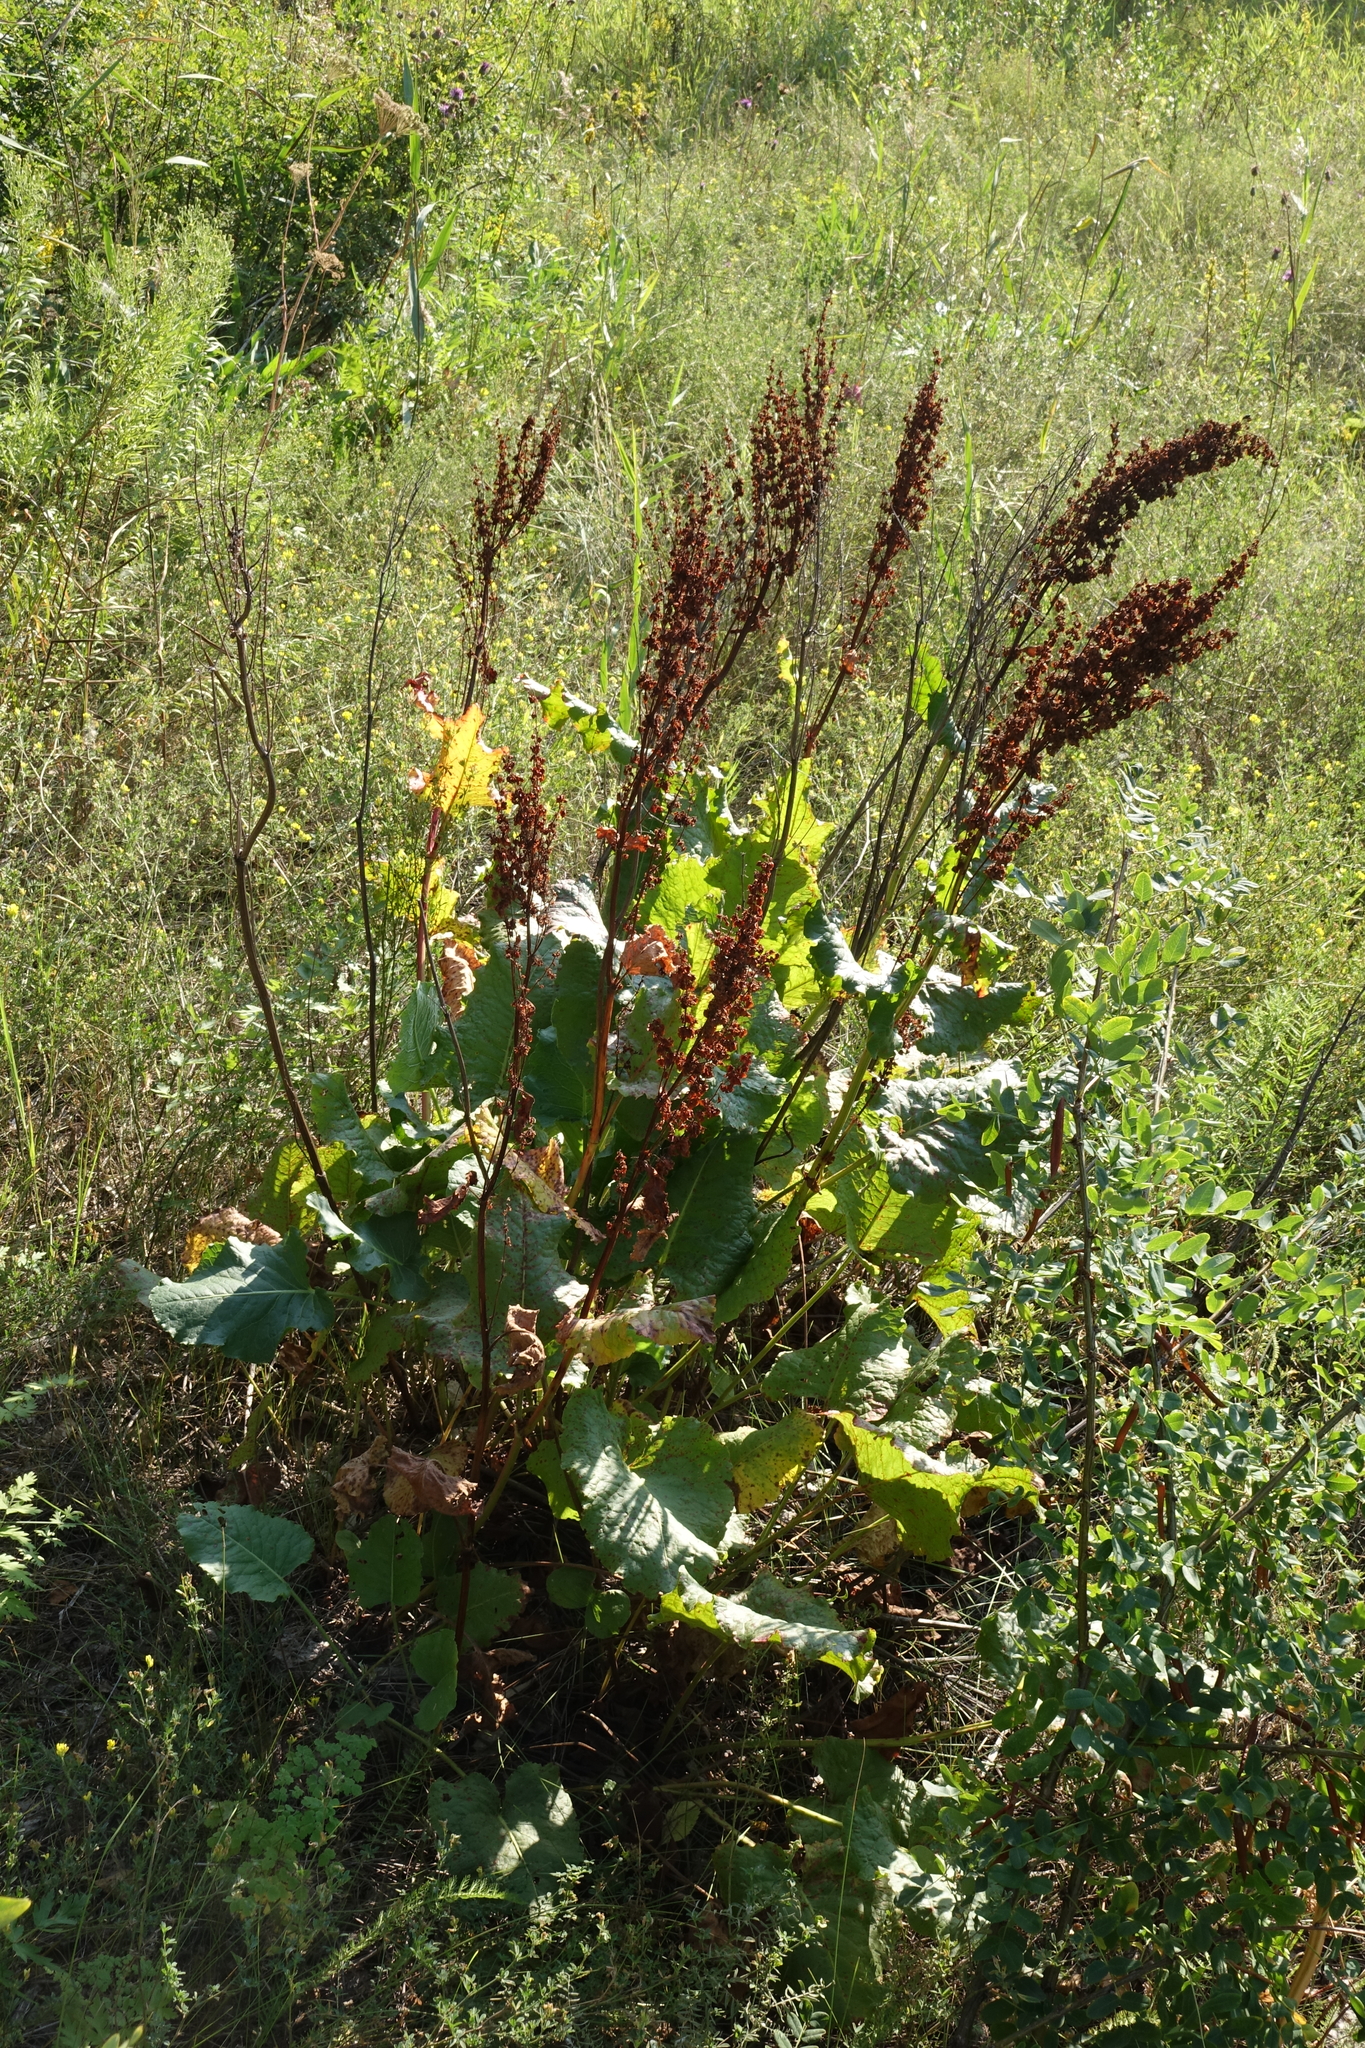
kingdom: Plantae
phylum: Tracheophyta
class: Magnoliopsida
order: Caryophyllales
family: Polygonaceae
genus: Rumex
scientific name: Rumex confertus
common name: Russian dock
